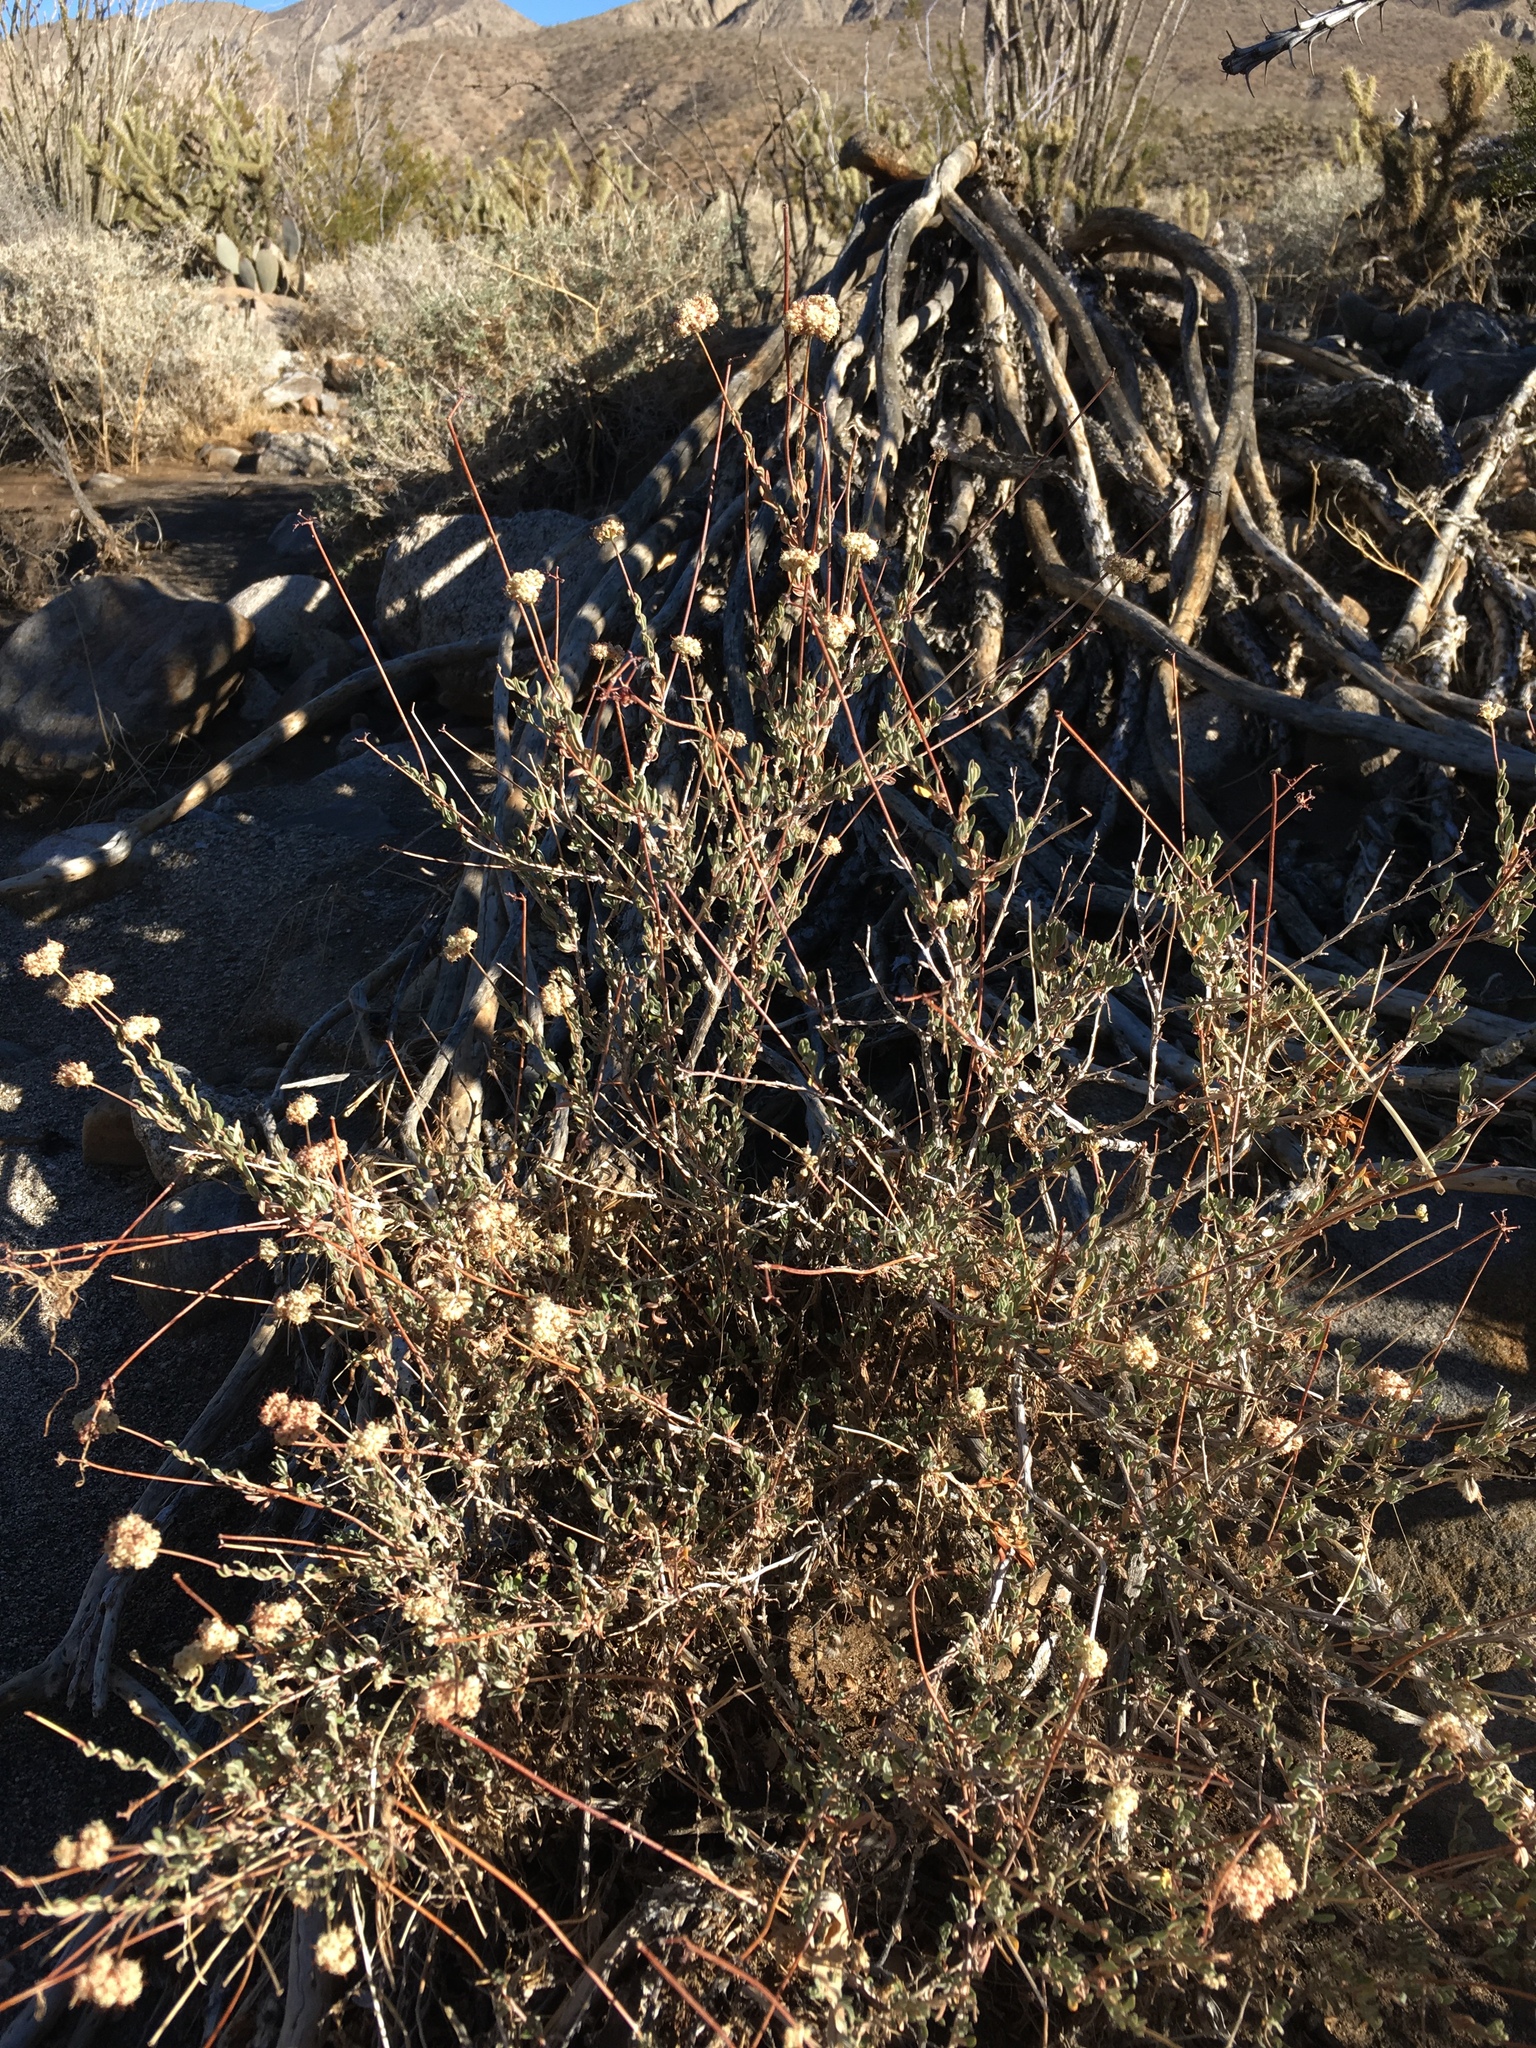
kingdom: Plantae
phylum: Tracheophyta
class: Magnoliopsida
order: Caryophyllales
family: Polygonaceae
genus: Eriogonum
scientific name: Eriogonum fasciculatum
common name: California wild buckwheat
